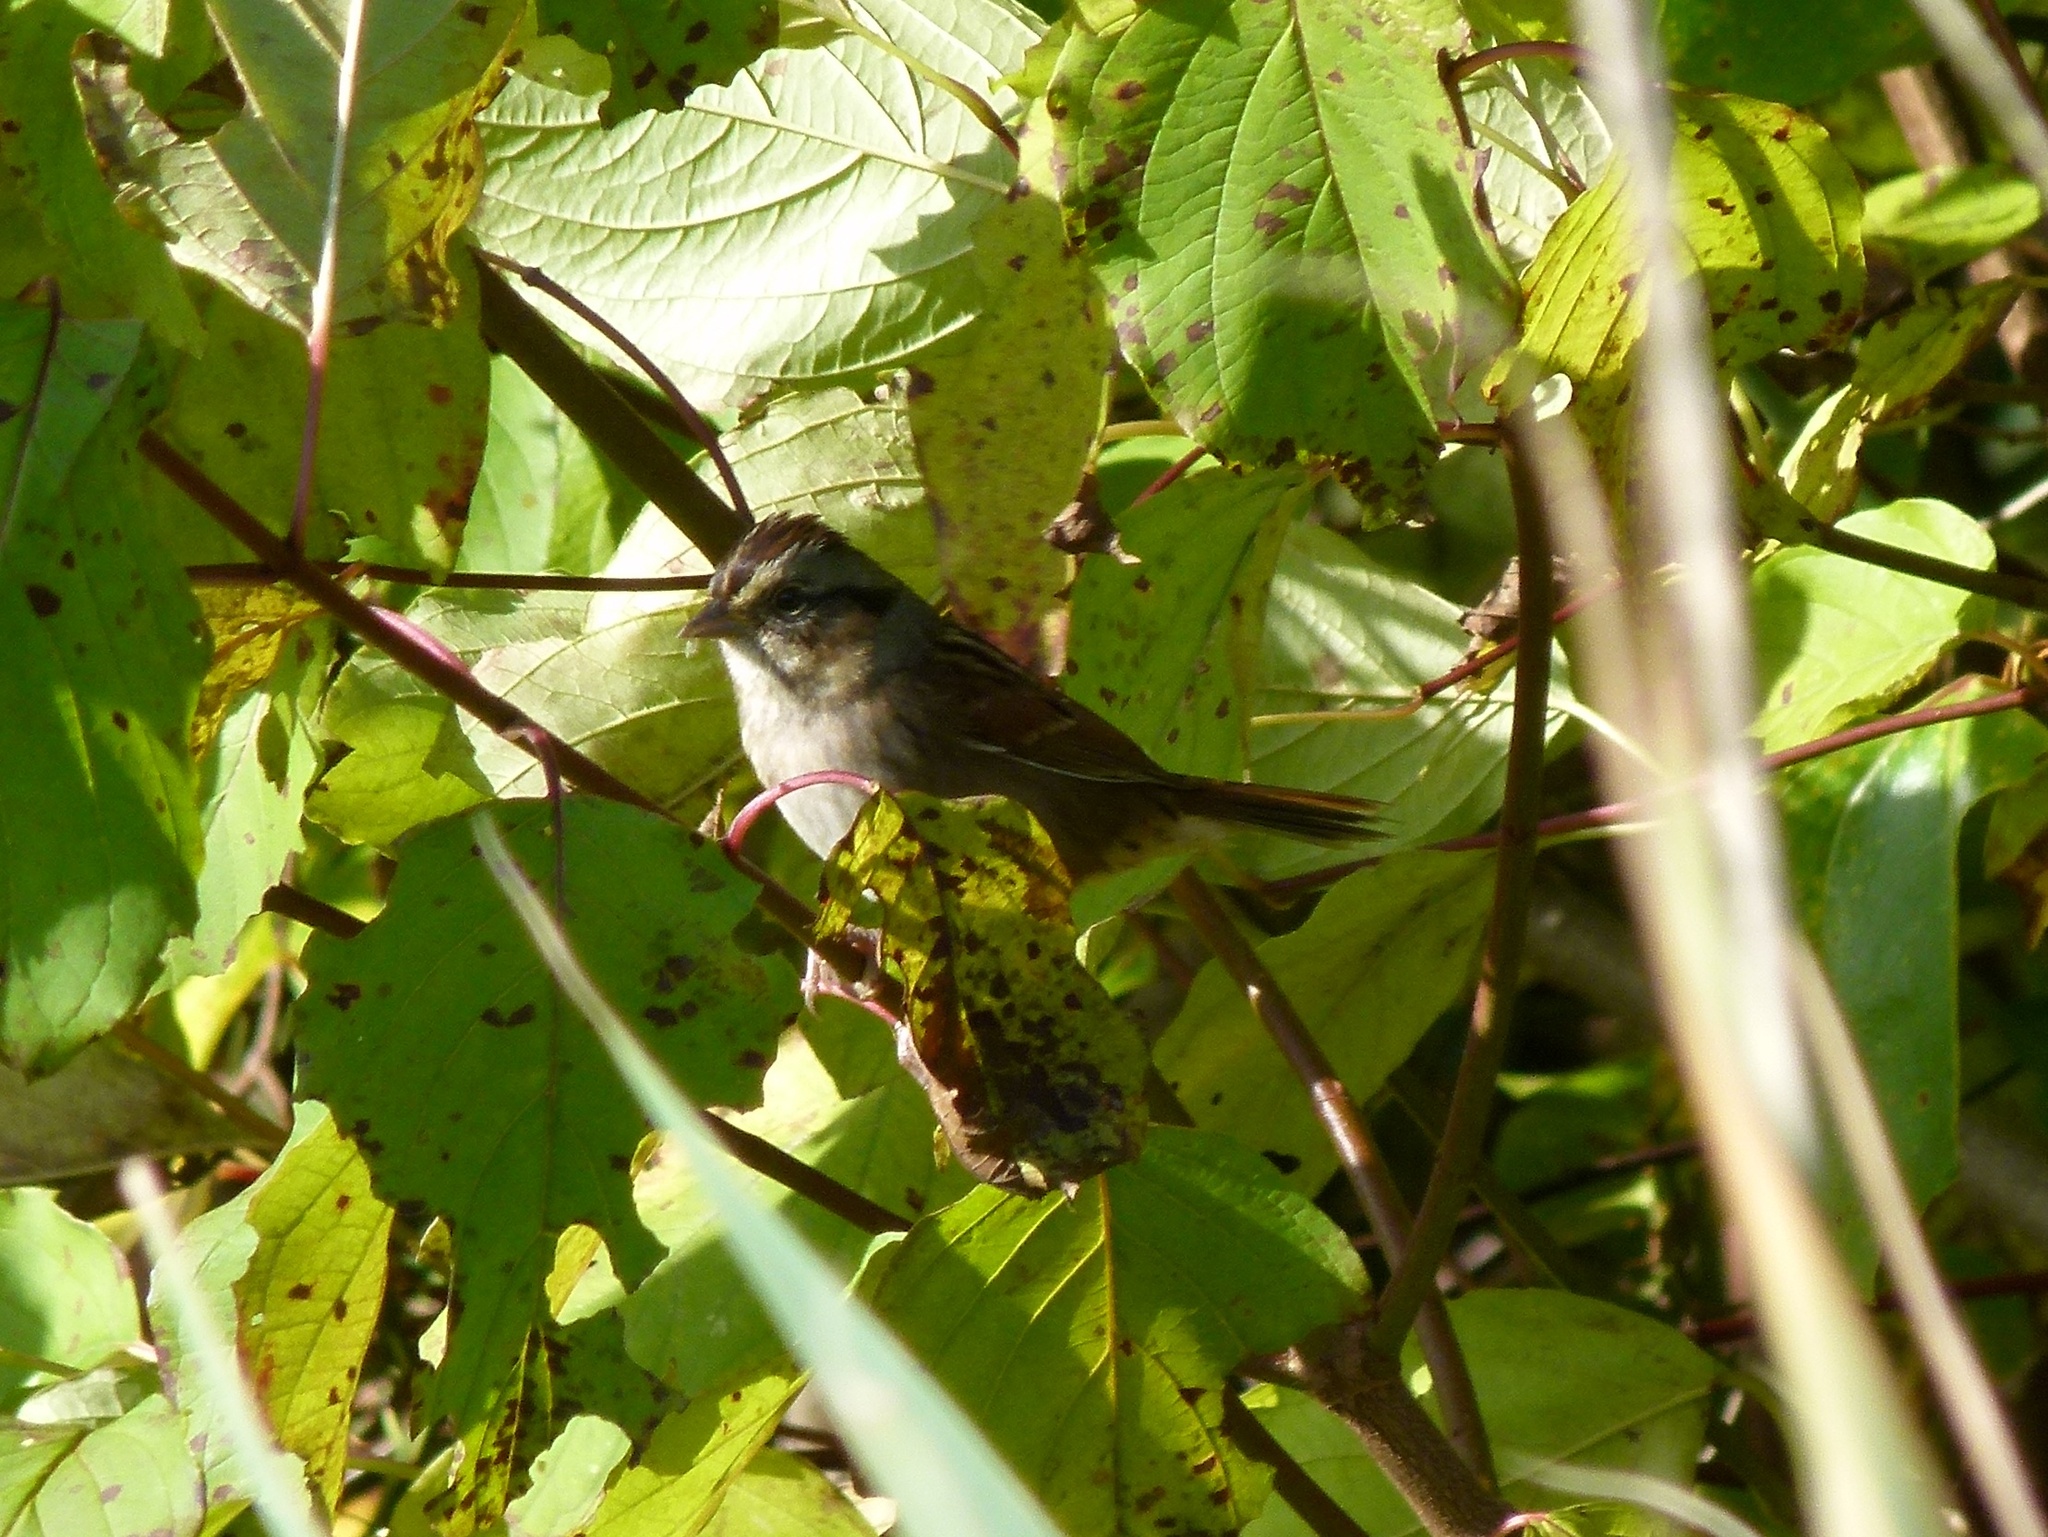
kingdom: Animalia
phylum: Chordata
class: Aves
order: Passeriformes
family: Passerellidae
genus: Melospiza
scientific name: Melospiza georgiana
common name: Swamp sparrow
